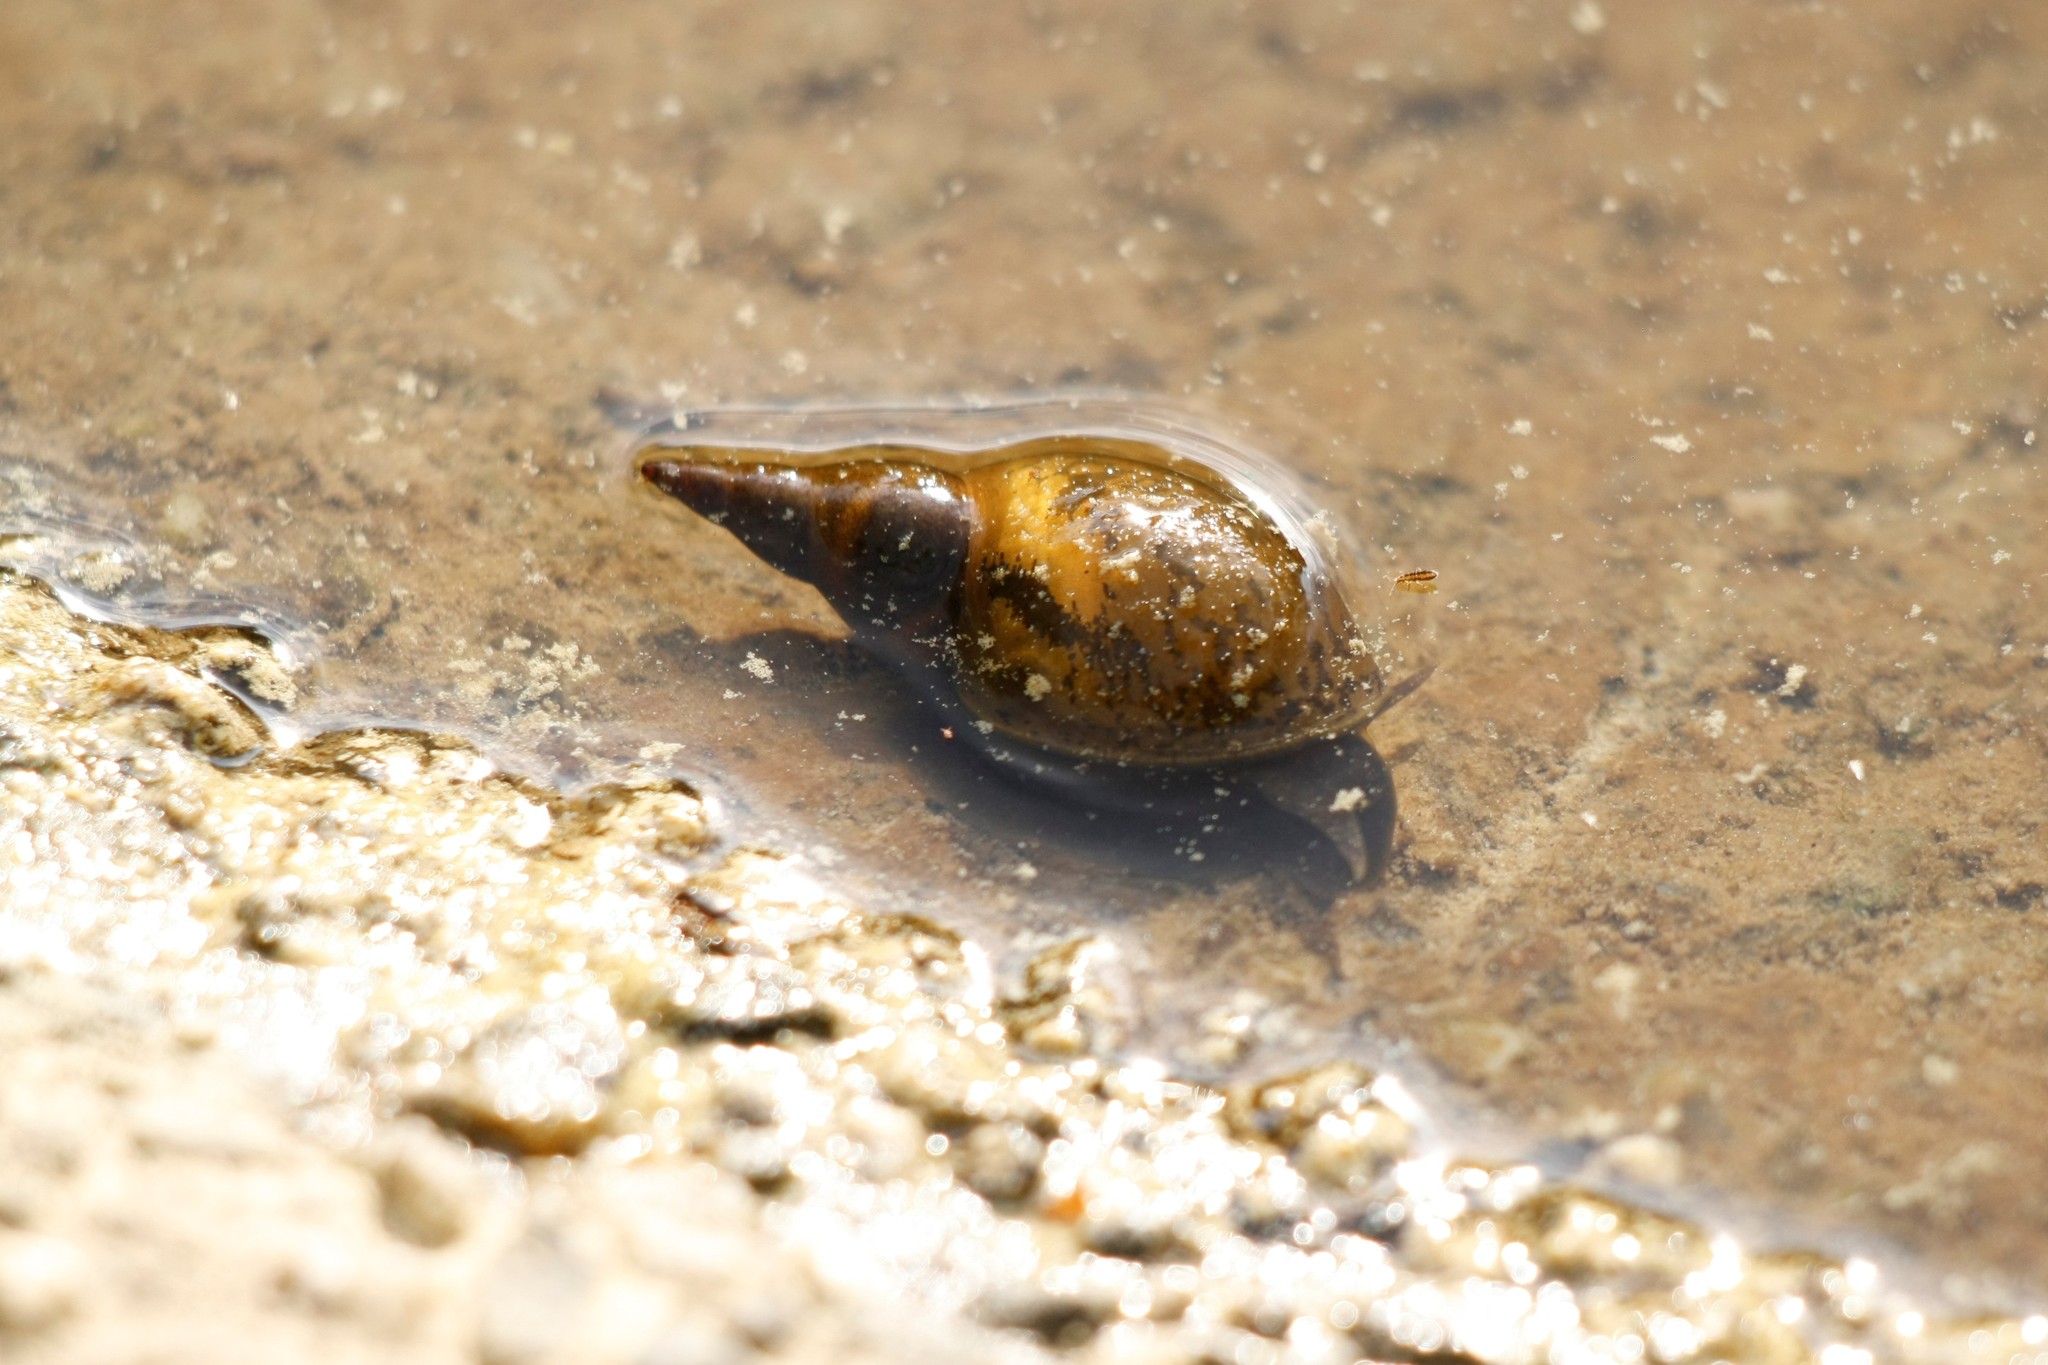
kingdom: Animalia
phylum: Mollusca
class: Gastropoda
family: Lymnaeidae
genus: Lymnaea
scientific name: Lymnaea stagnalis
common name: Great pond snail
